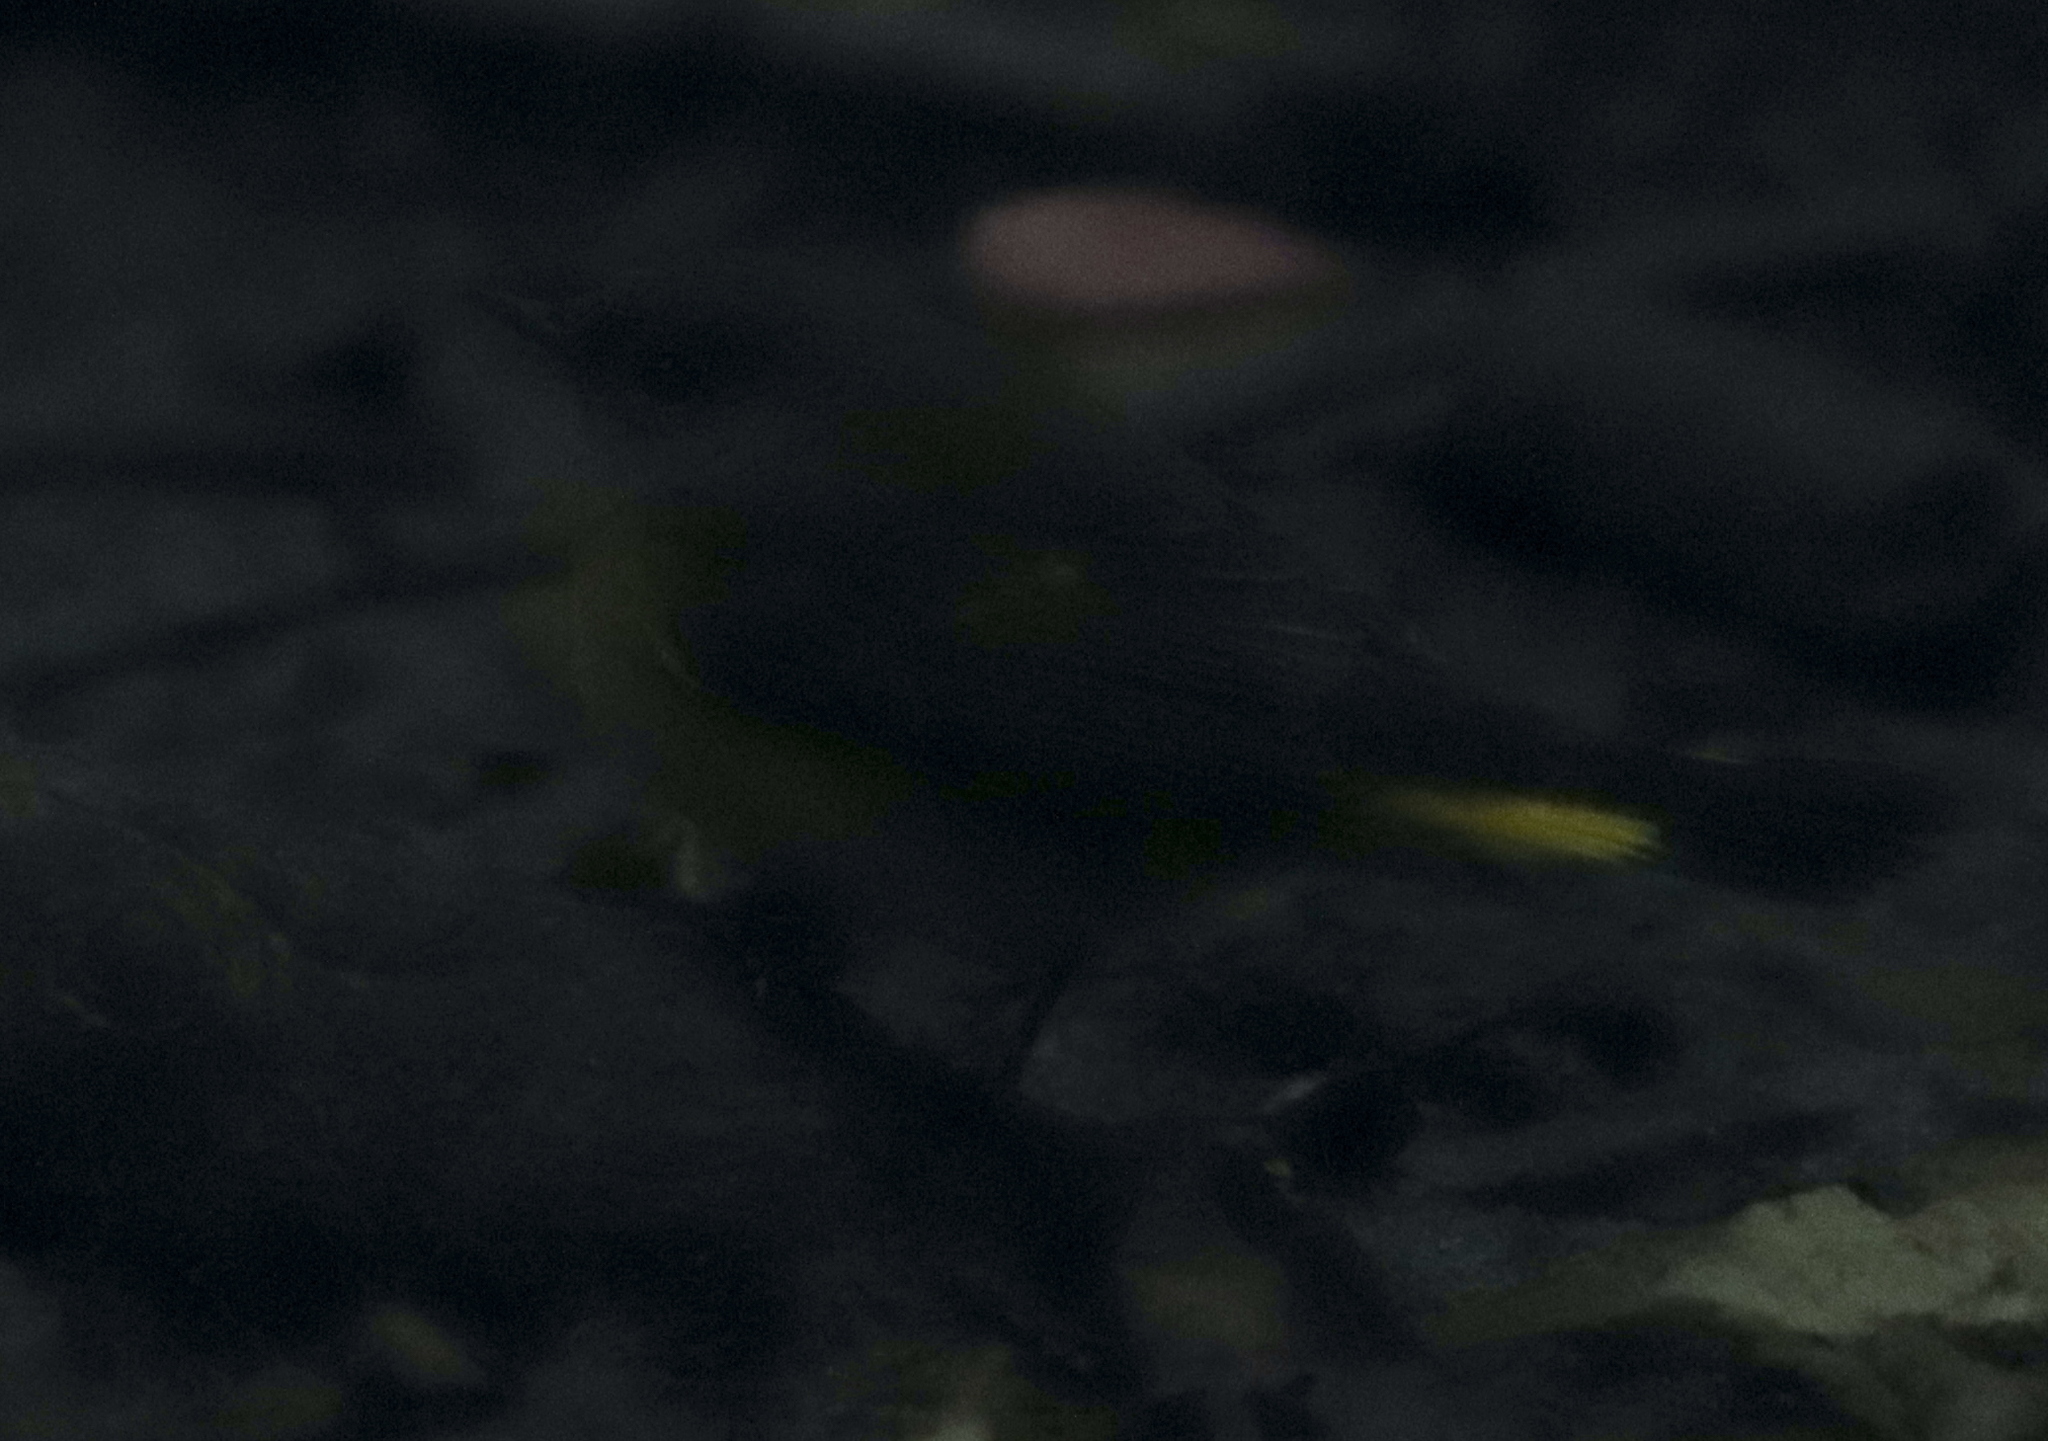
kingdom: Animalia
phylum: Chordata
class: Aves
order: Passeriformes
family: Parulidae
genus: Setophaga
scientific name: Setophaga ruticilla
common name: American redstart
